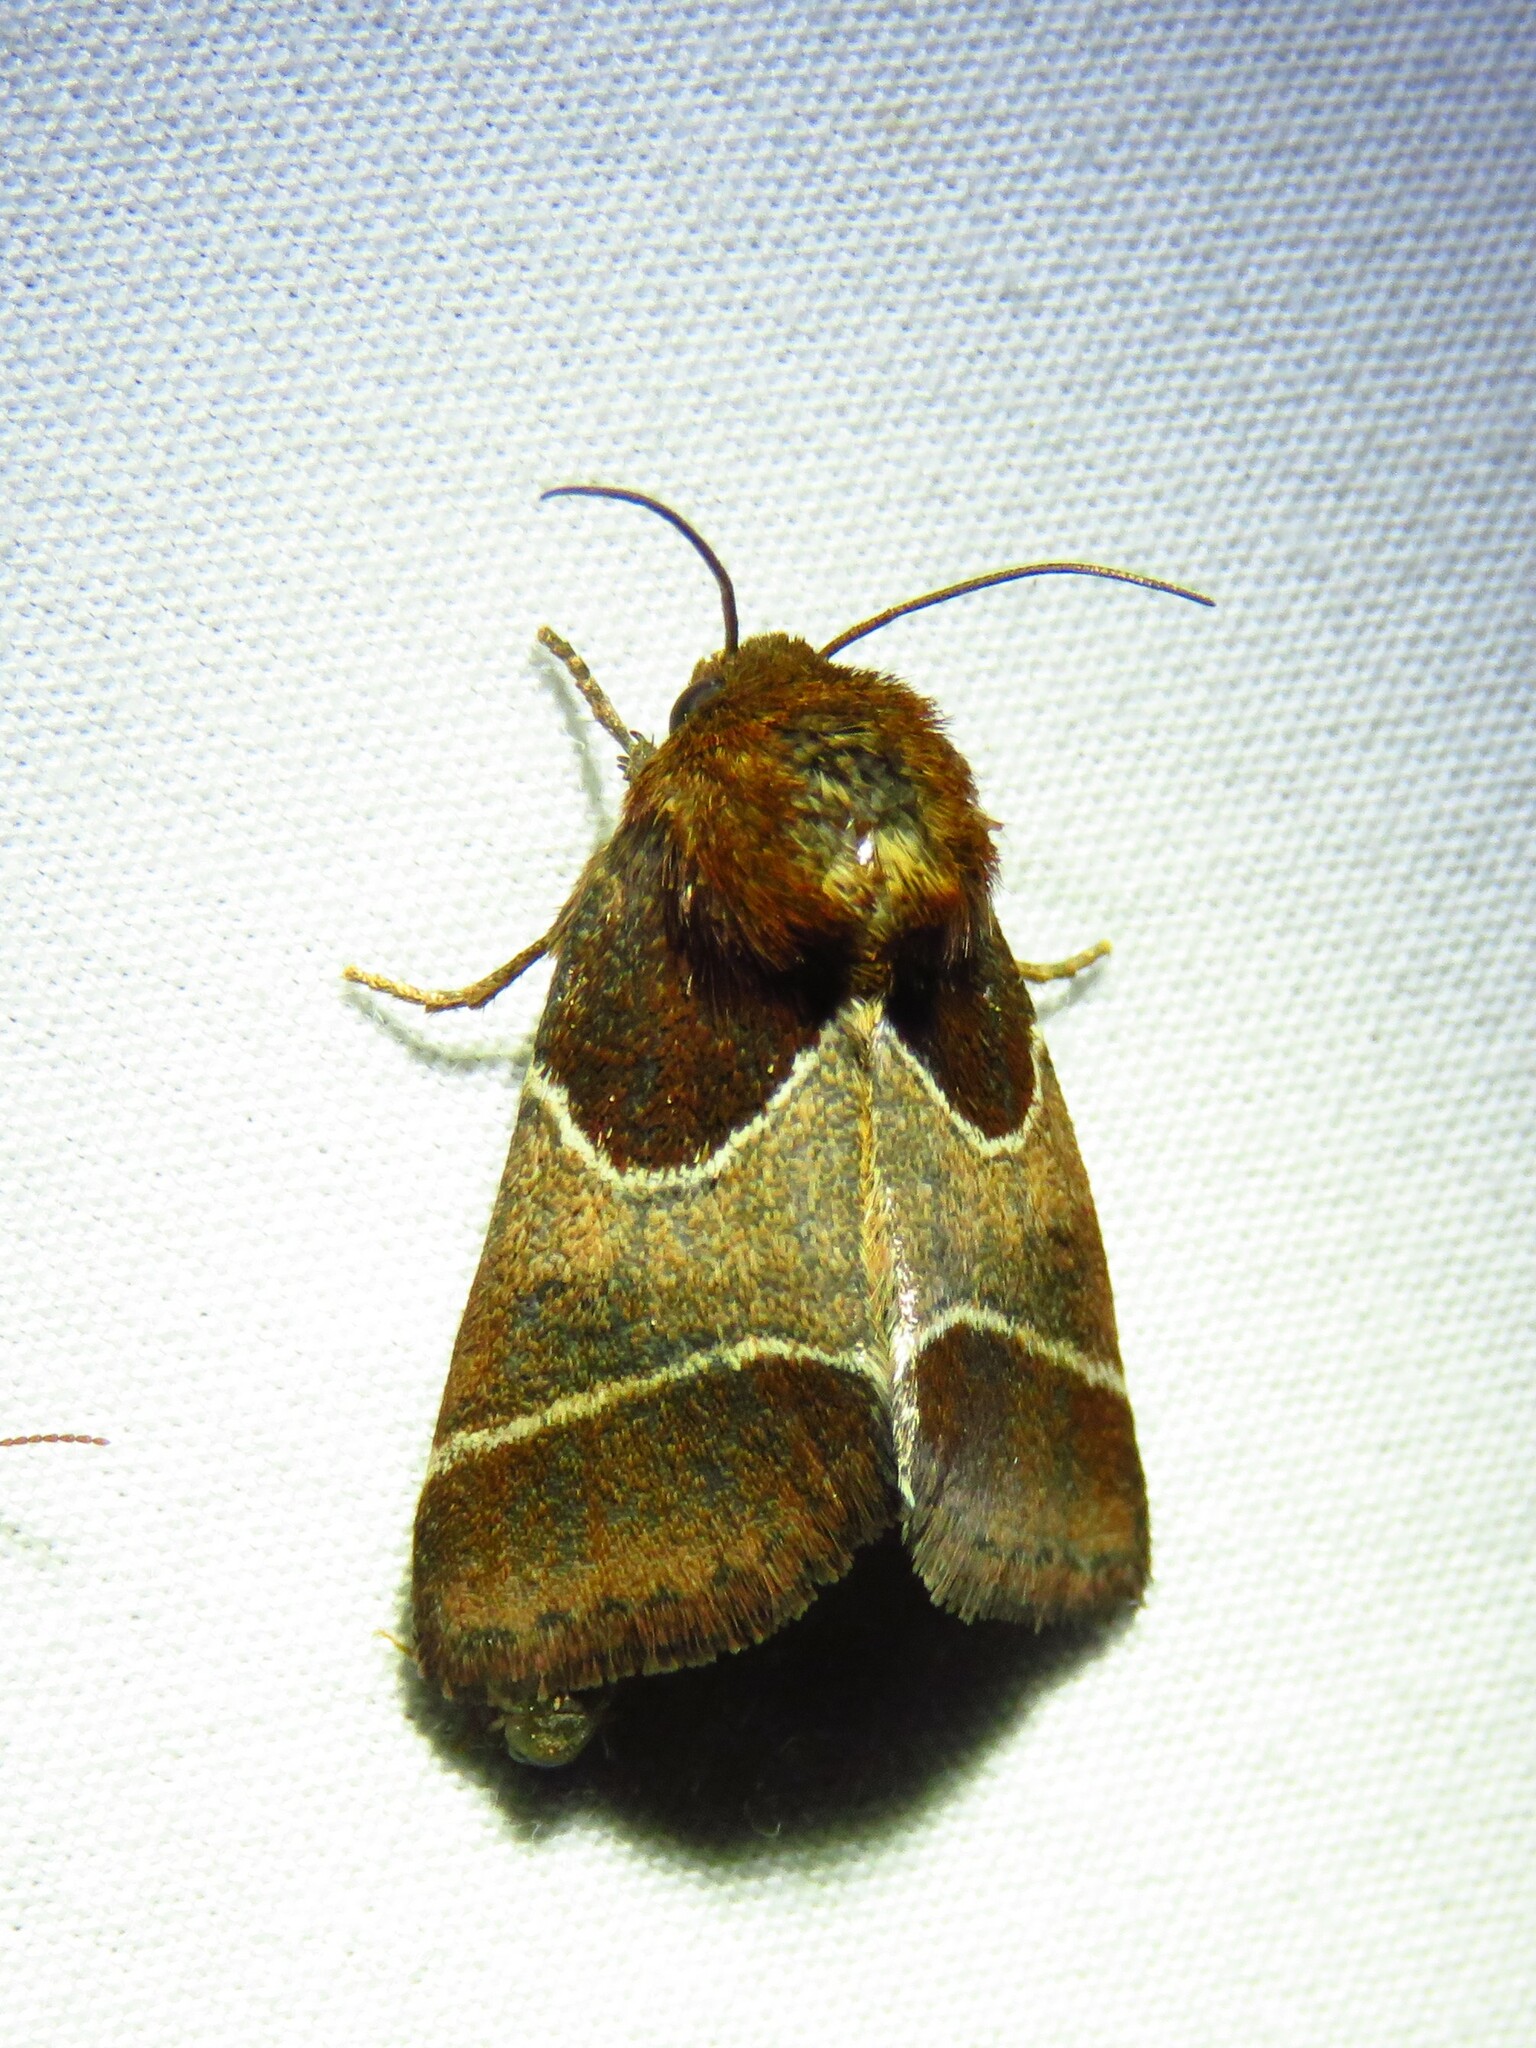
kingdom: Animalia
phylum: Arthropoda
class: Insecta
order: Lepidoptera
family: Noctuidae
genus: Schinia
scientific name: Schinia arcigera
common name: Arcigera flower moth
